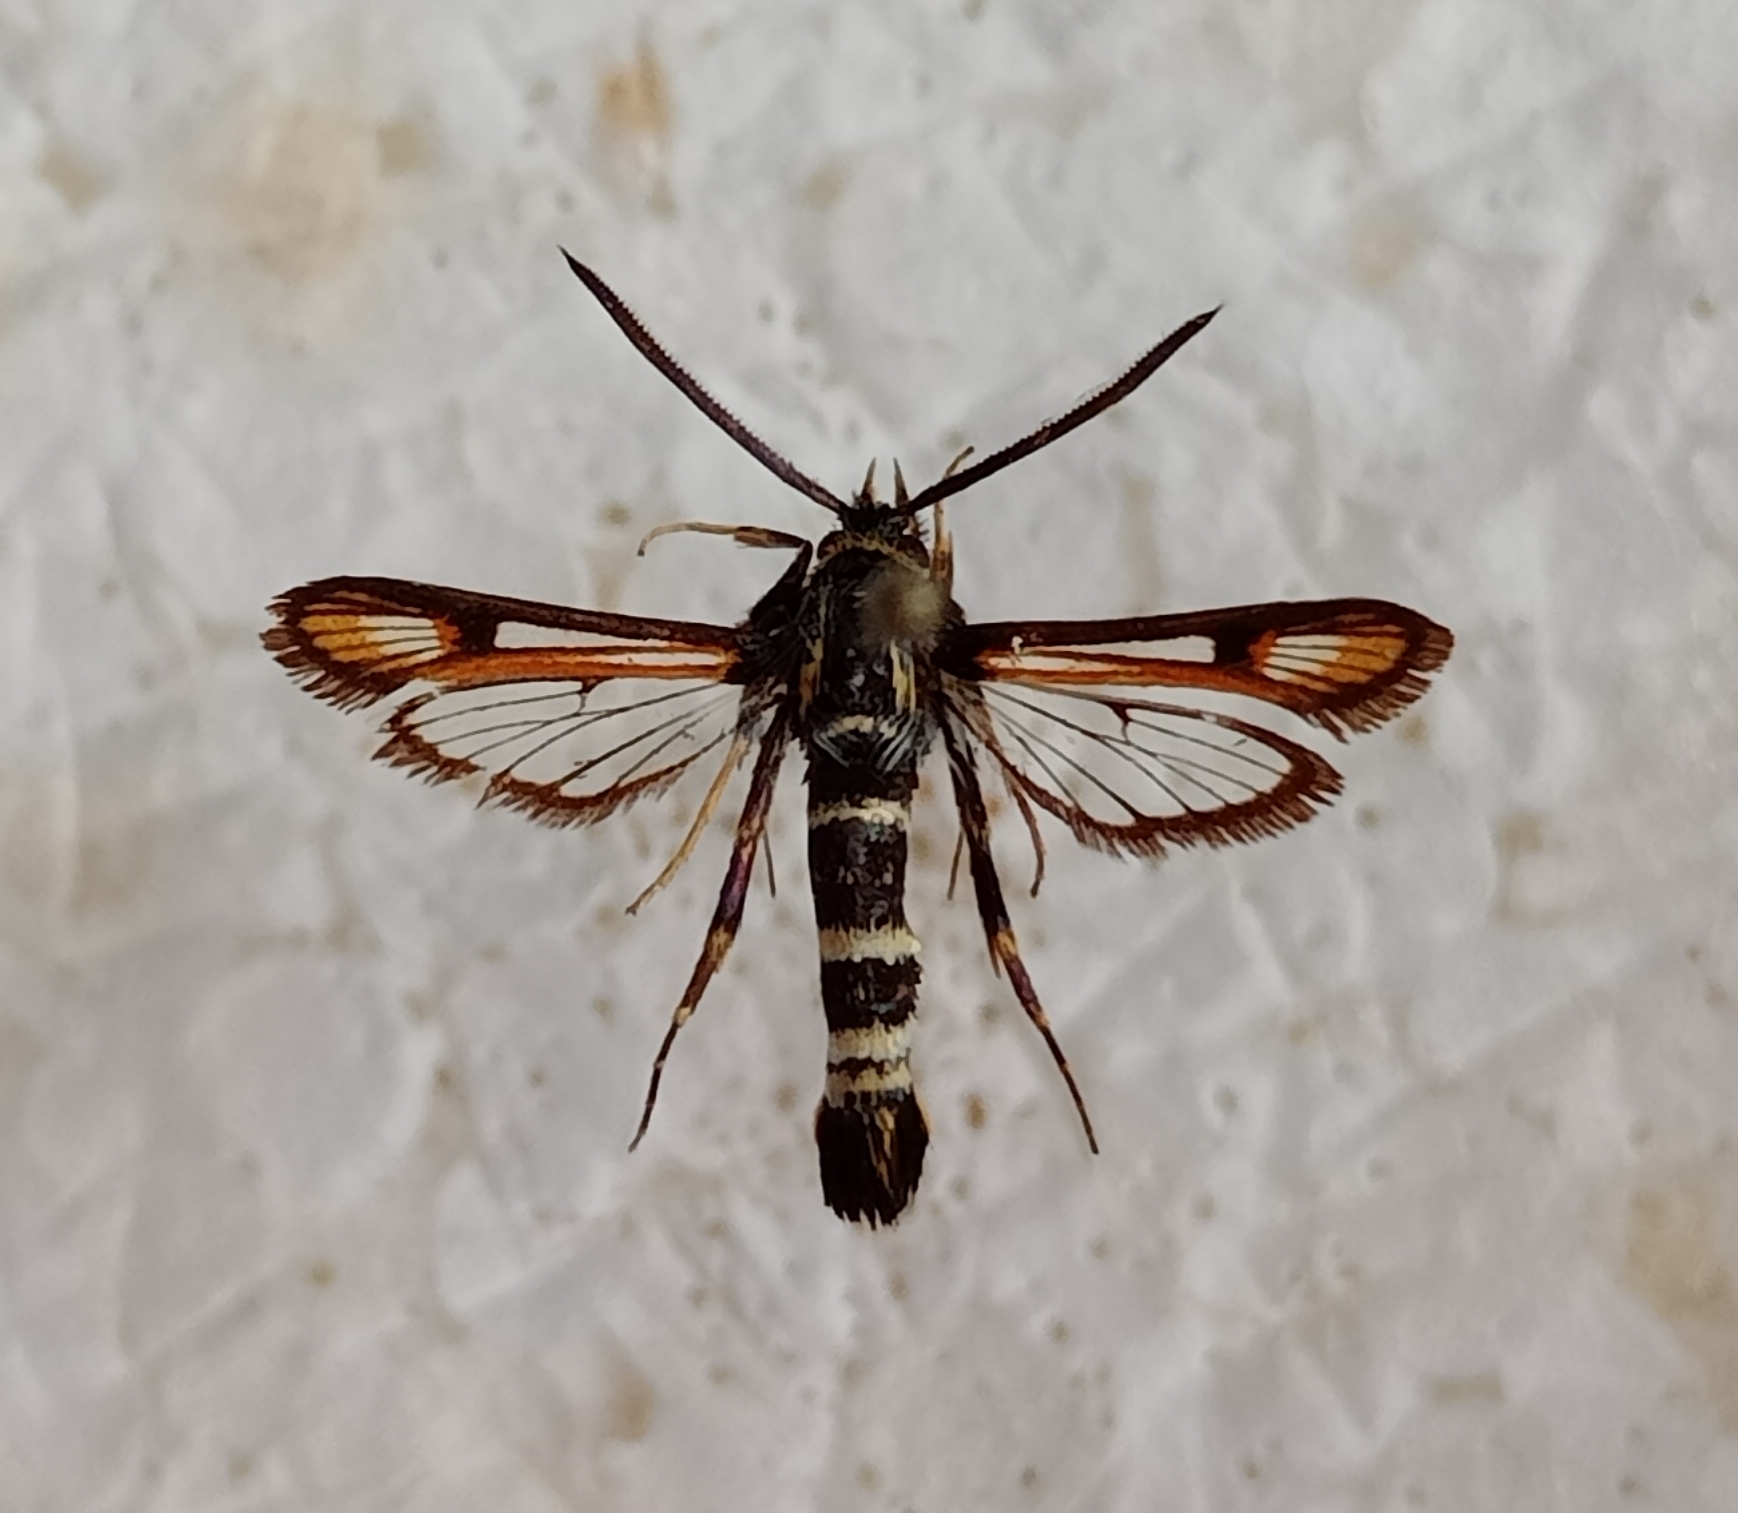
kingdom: Animalia
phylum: Arthropoda
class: Insecta
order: Lepidoptera
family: Sesiidae
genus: Bembecia
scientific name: Bembecia fokidensis
